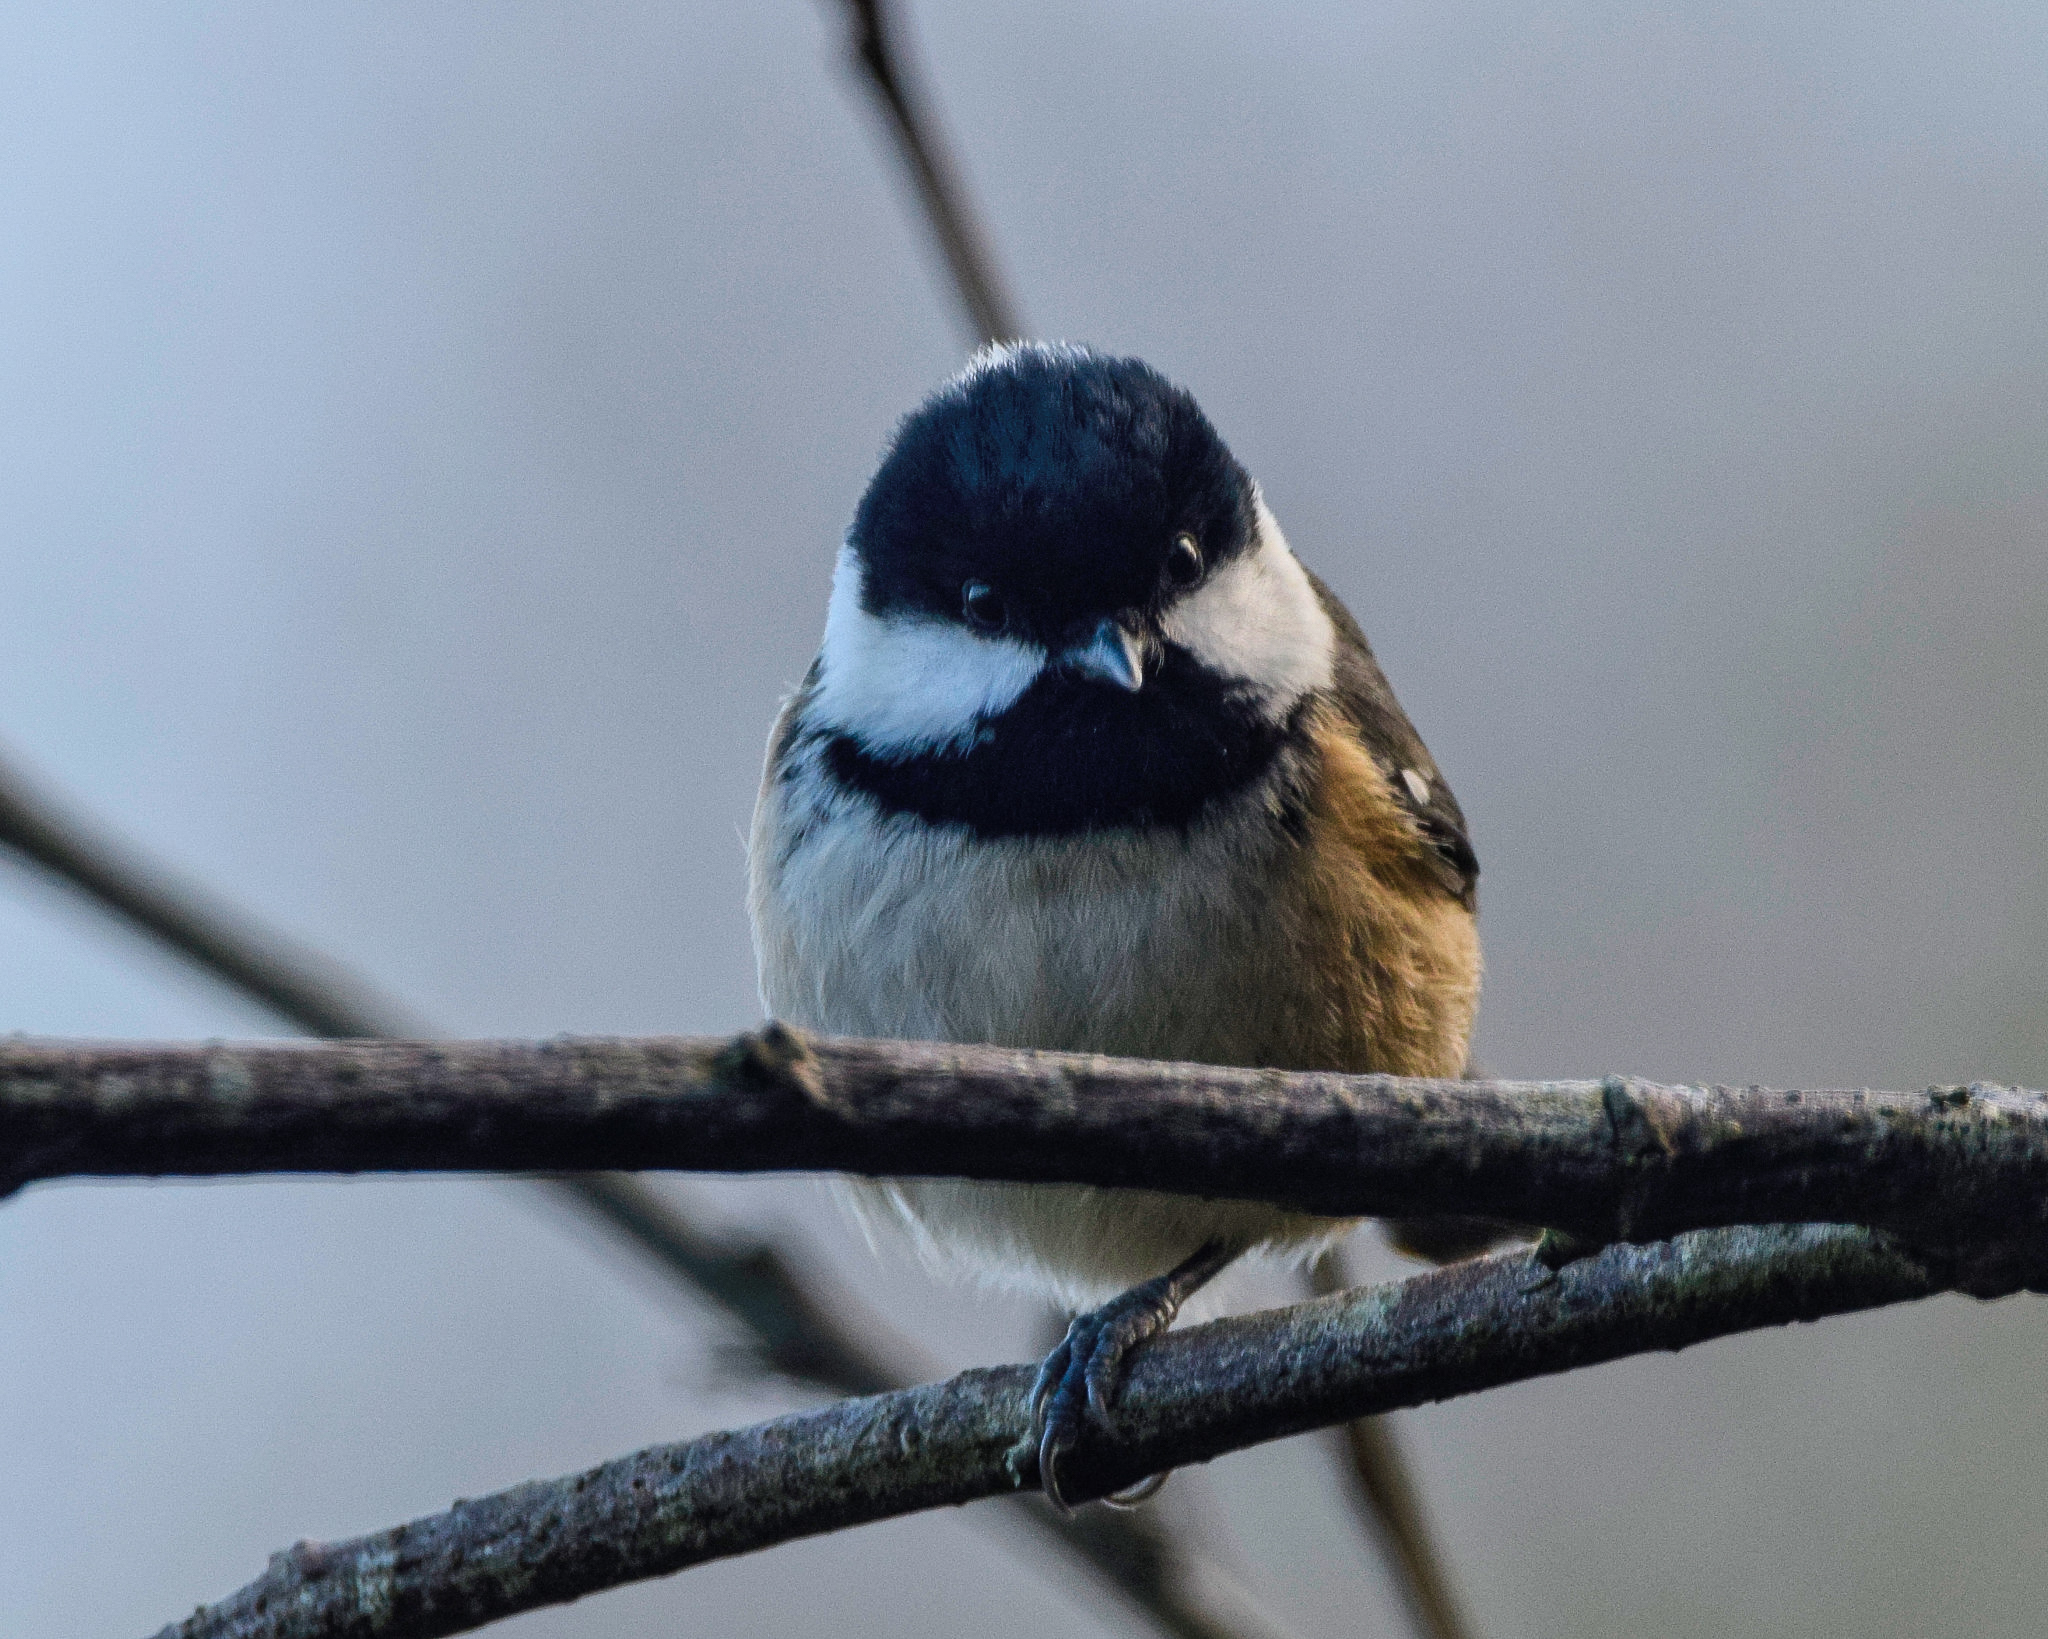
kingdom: Animalia
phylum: Chordata
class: Aves
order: Passeriformes
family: Paridae
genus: Periparus
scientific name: Periparus ater
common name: Coal tit
